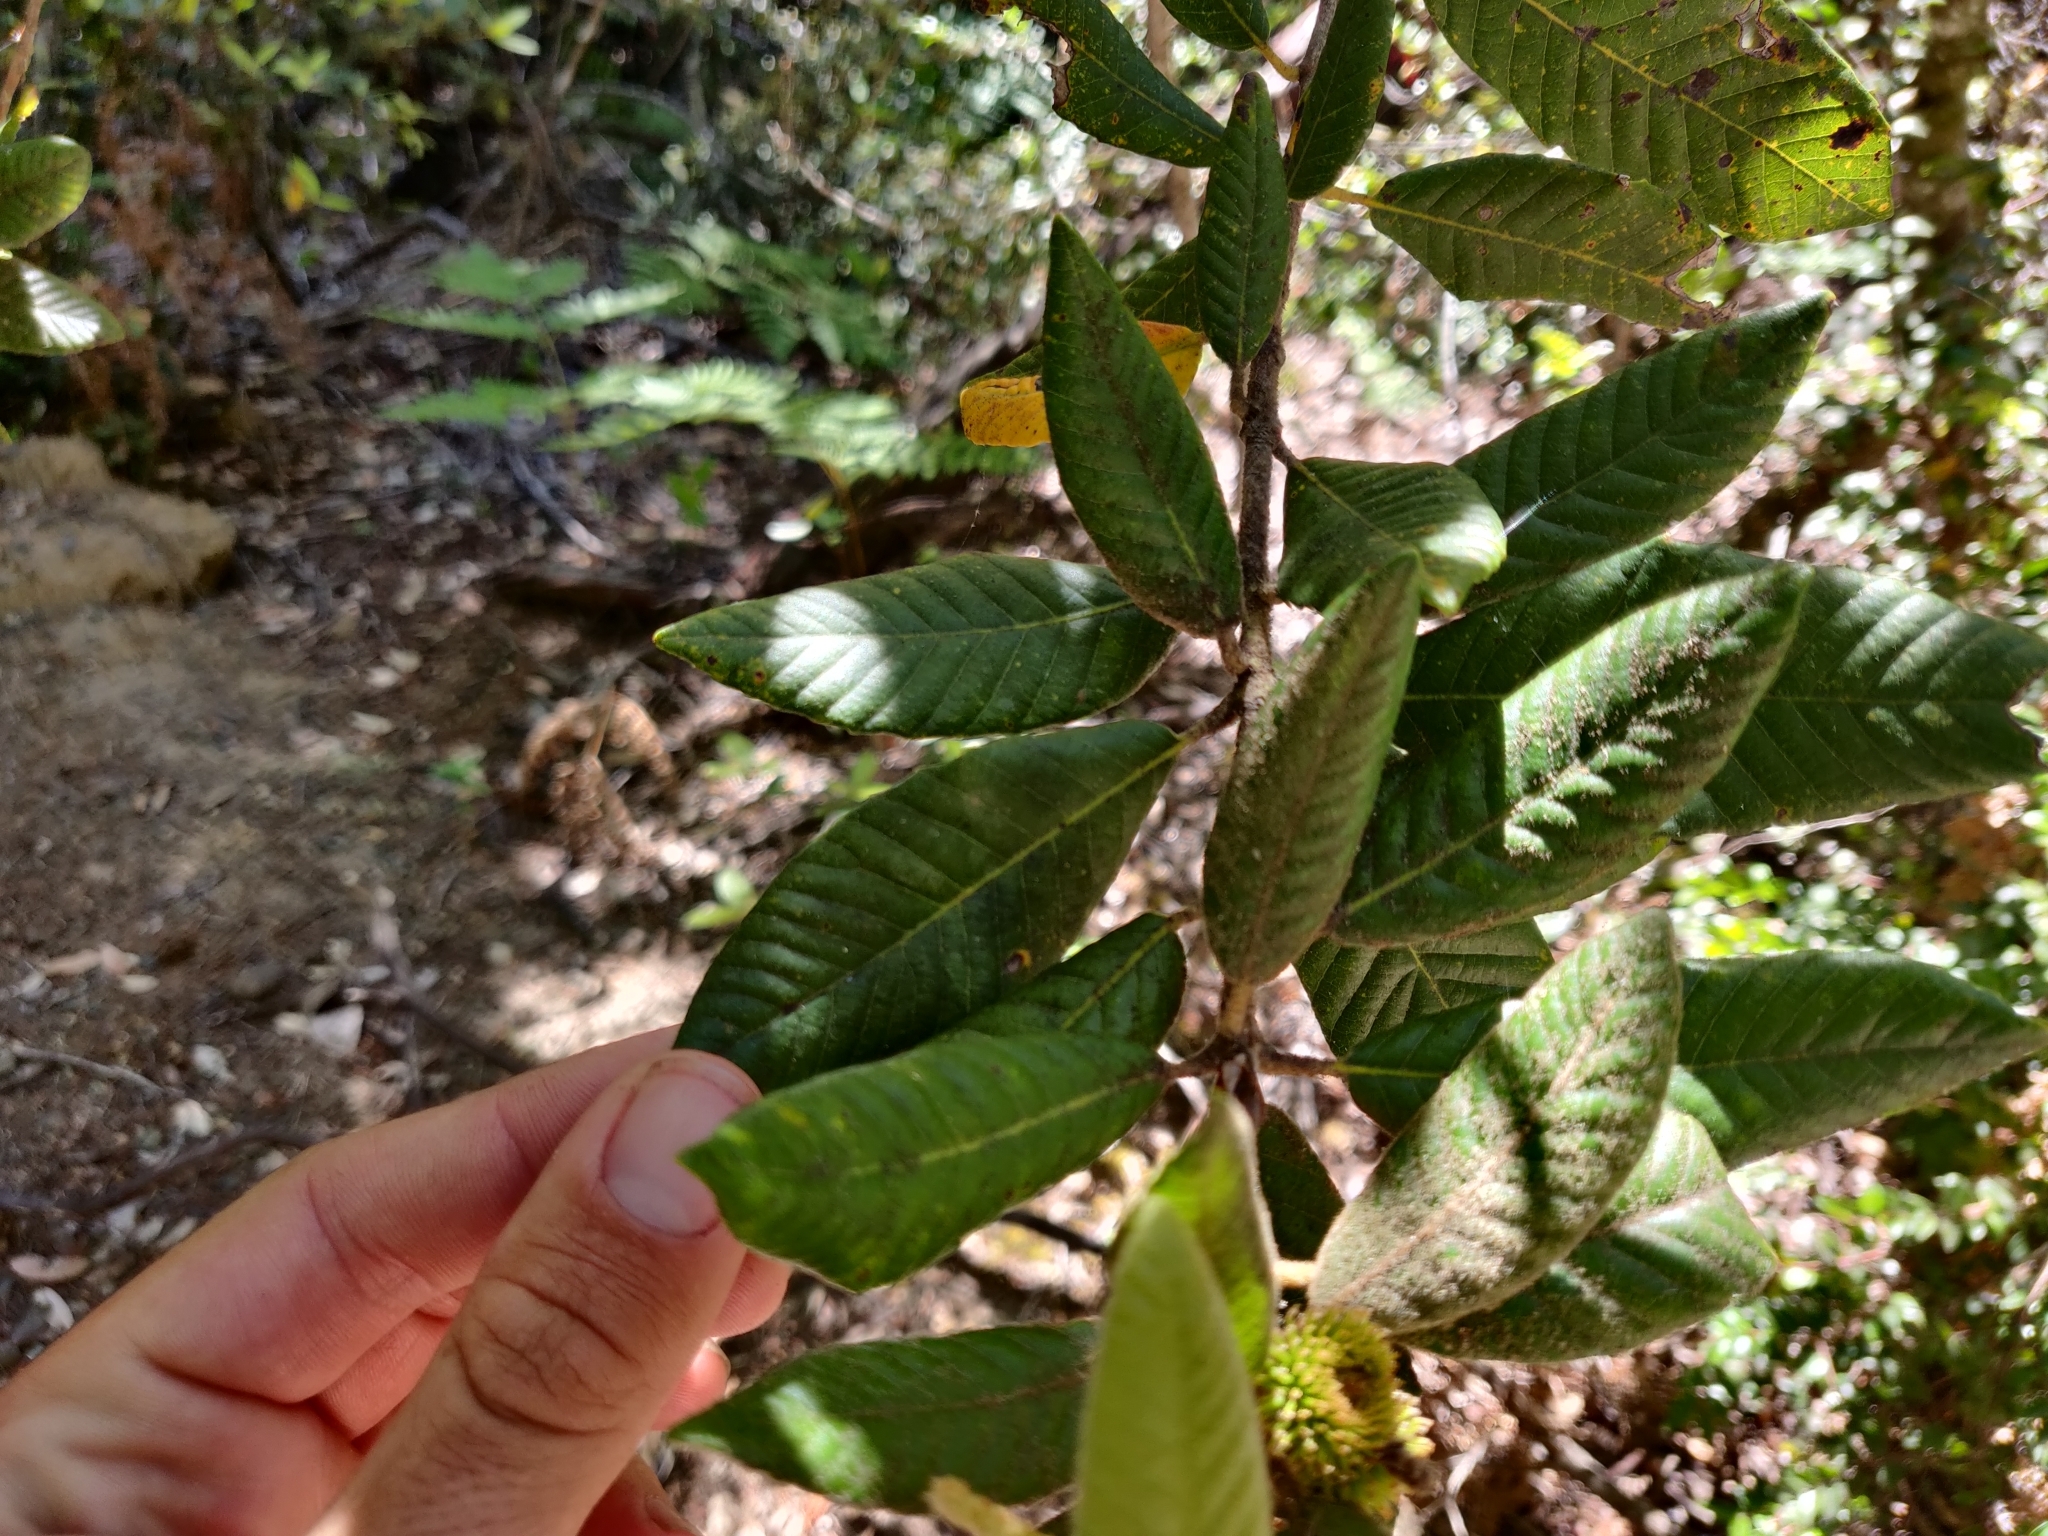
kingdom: Plantae
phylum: Tracheophyta
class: Magnoliopsida
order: Fagales
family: Fagaceae
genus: Notholithocarpus
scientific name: Notholithocarpus densiflorus
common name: Tan bark oak
